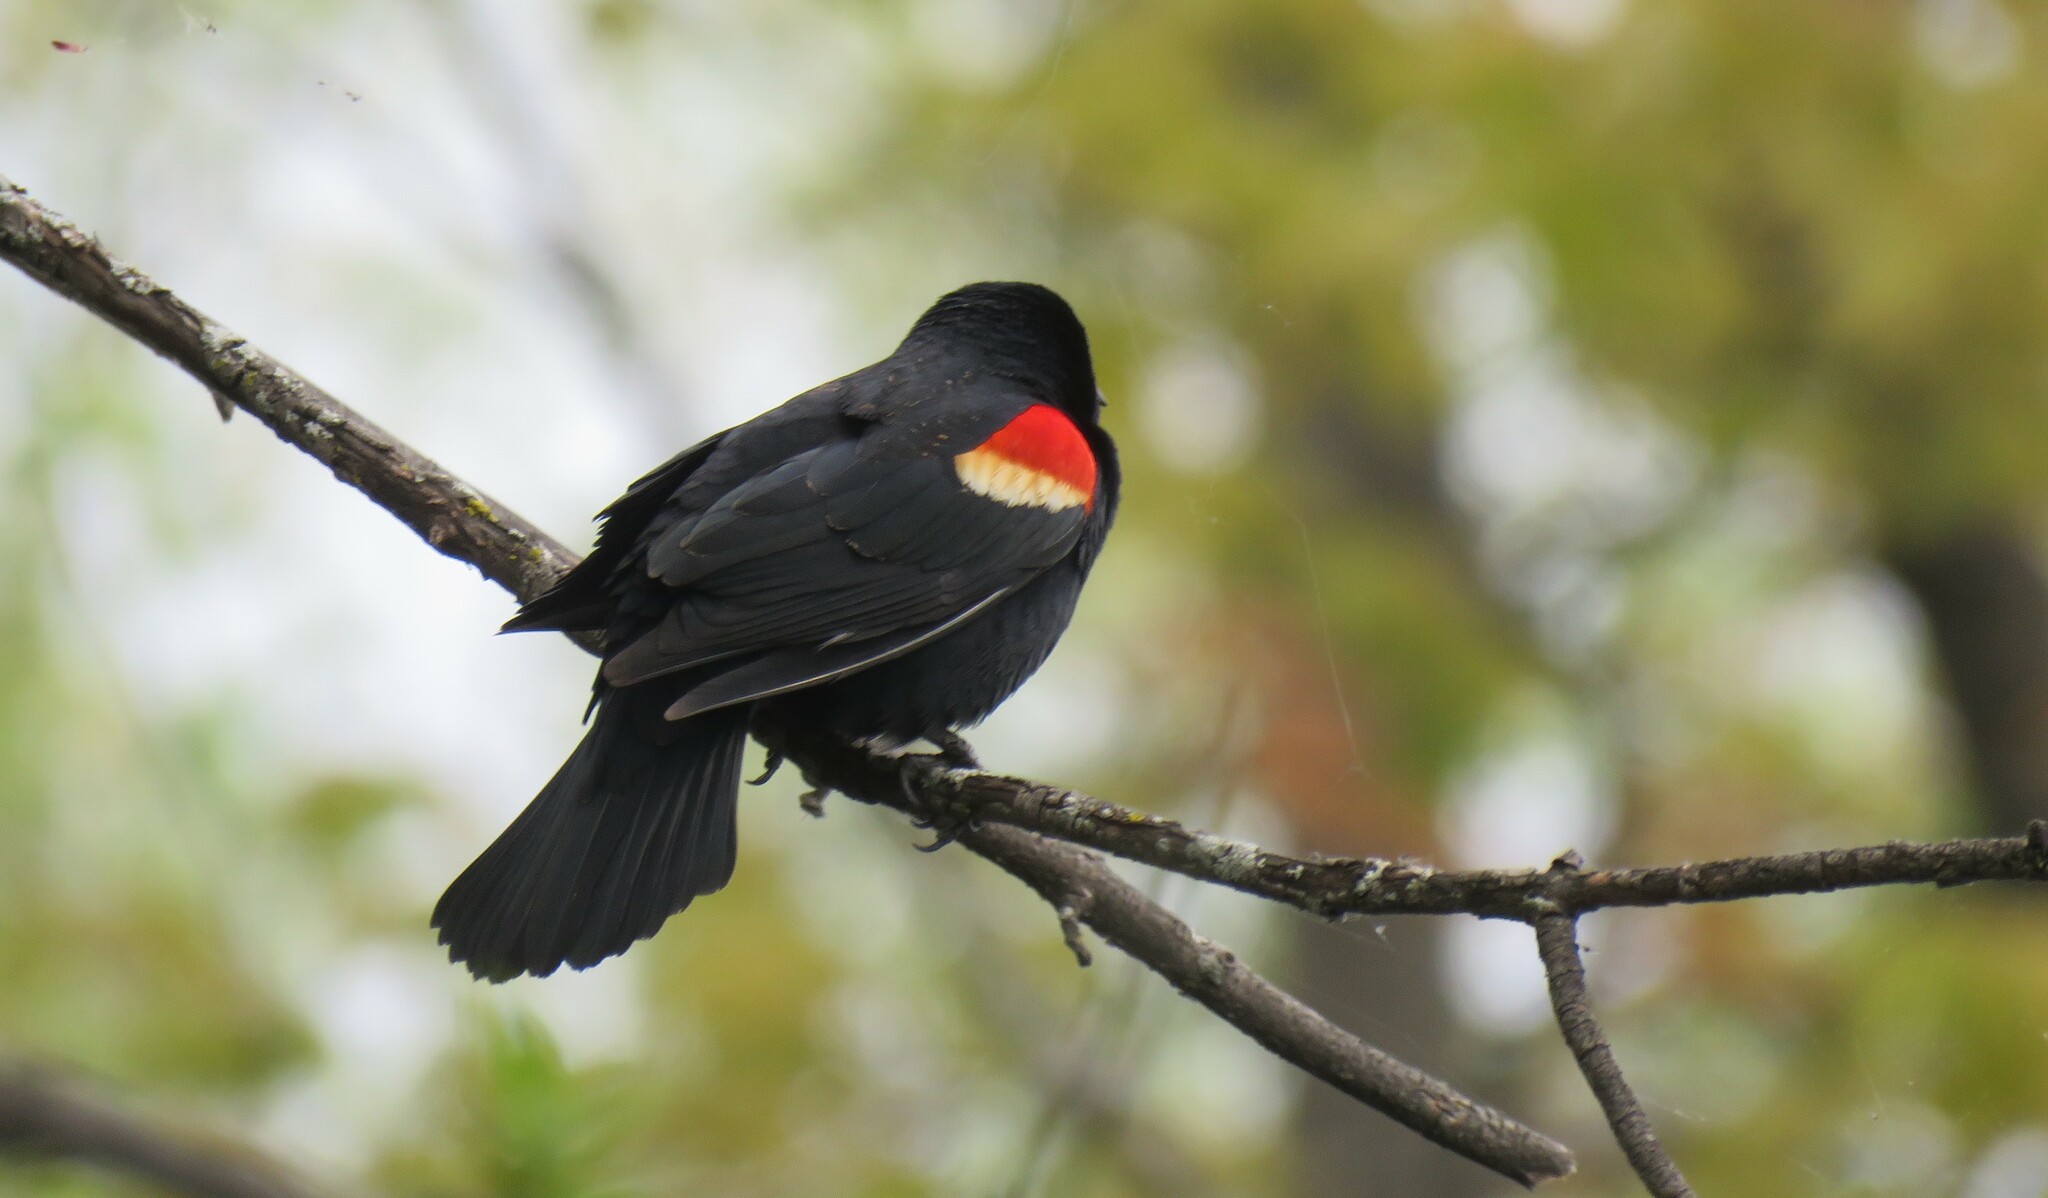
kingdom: Animalia
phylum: Chordata
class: Aves
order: Passeriformes
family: Icteridae
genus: Agelaius
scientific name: Agelaius phoeniceus
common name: Red-winged blackbird
